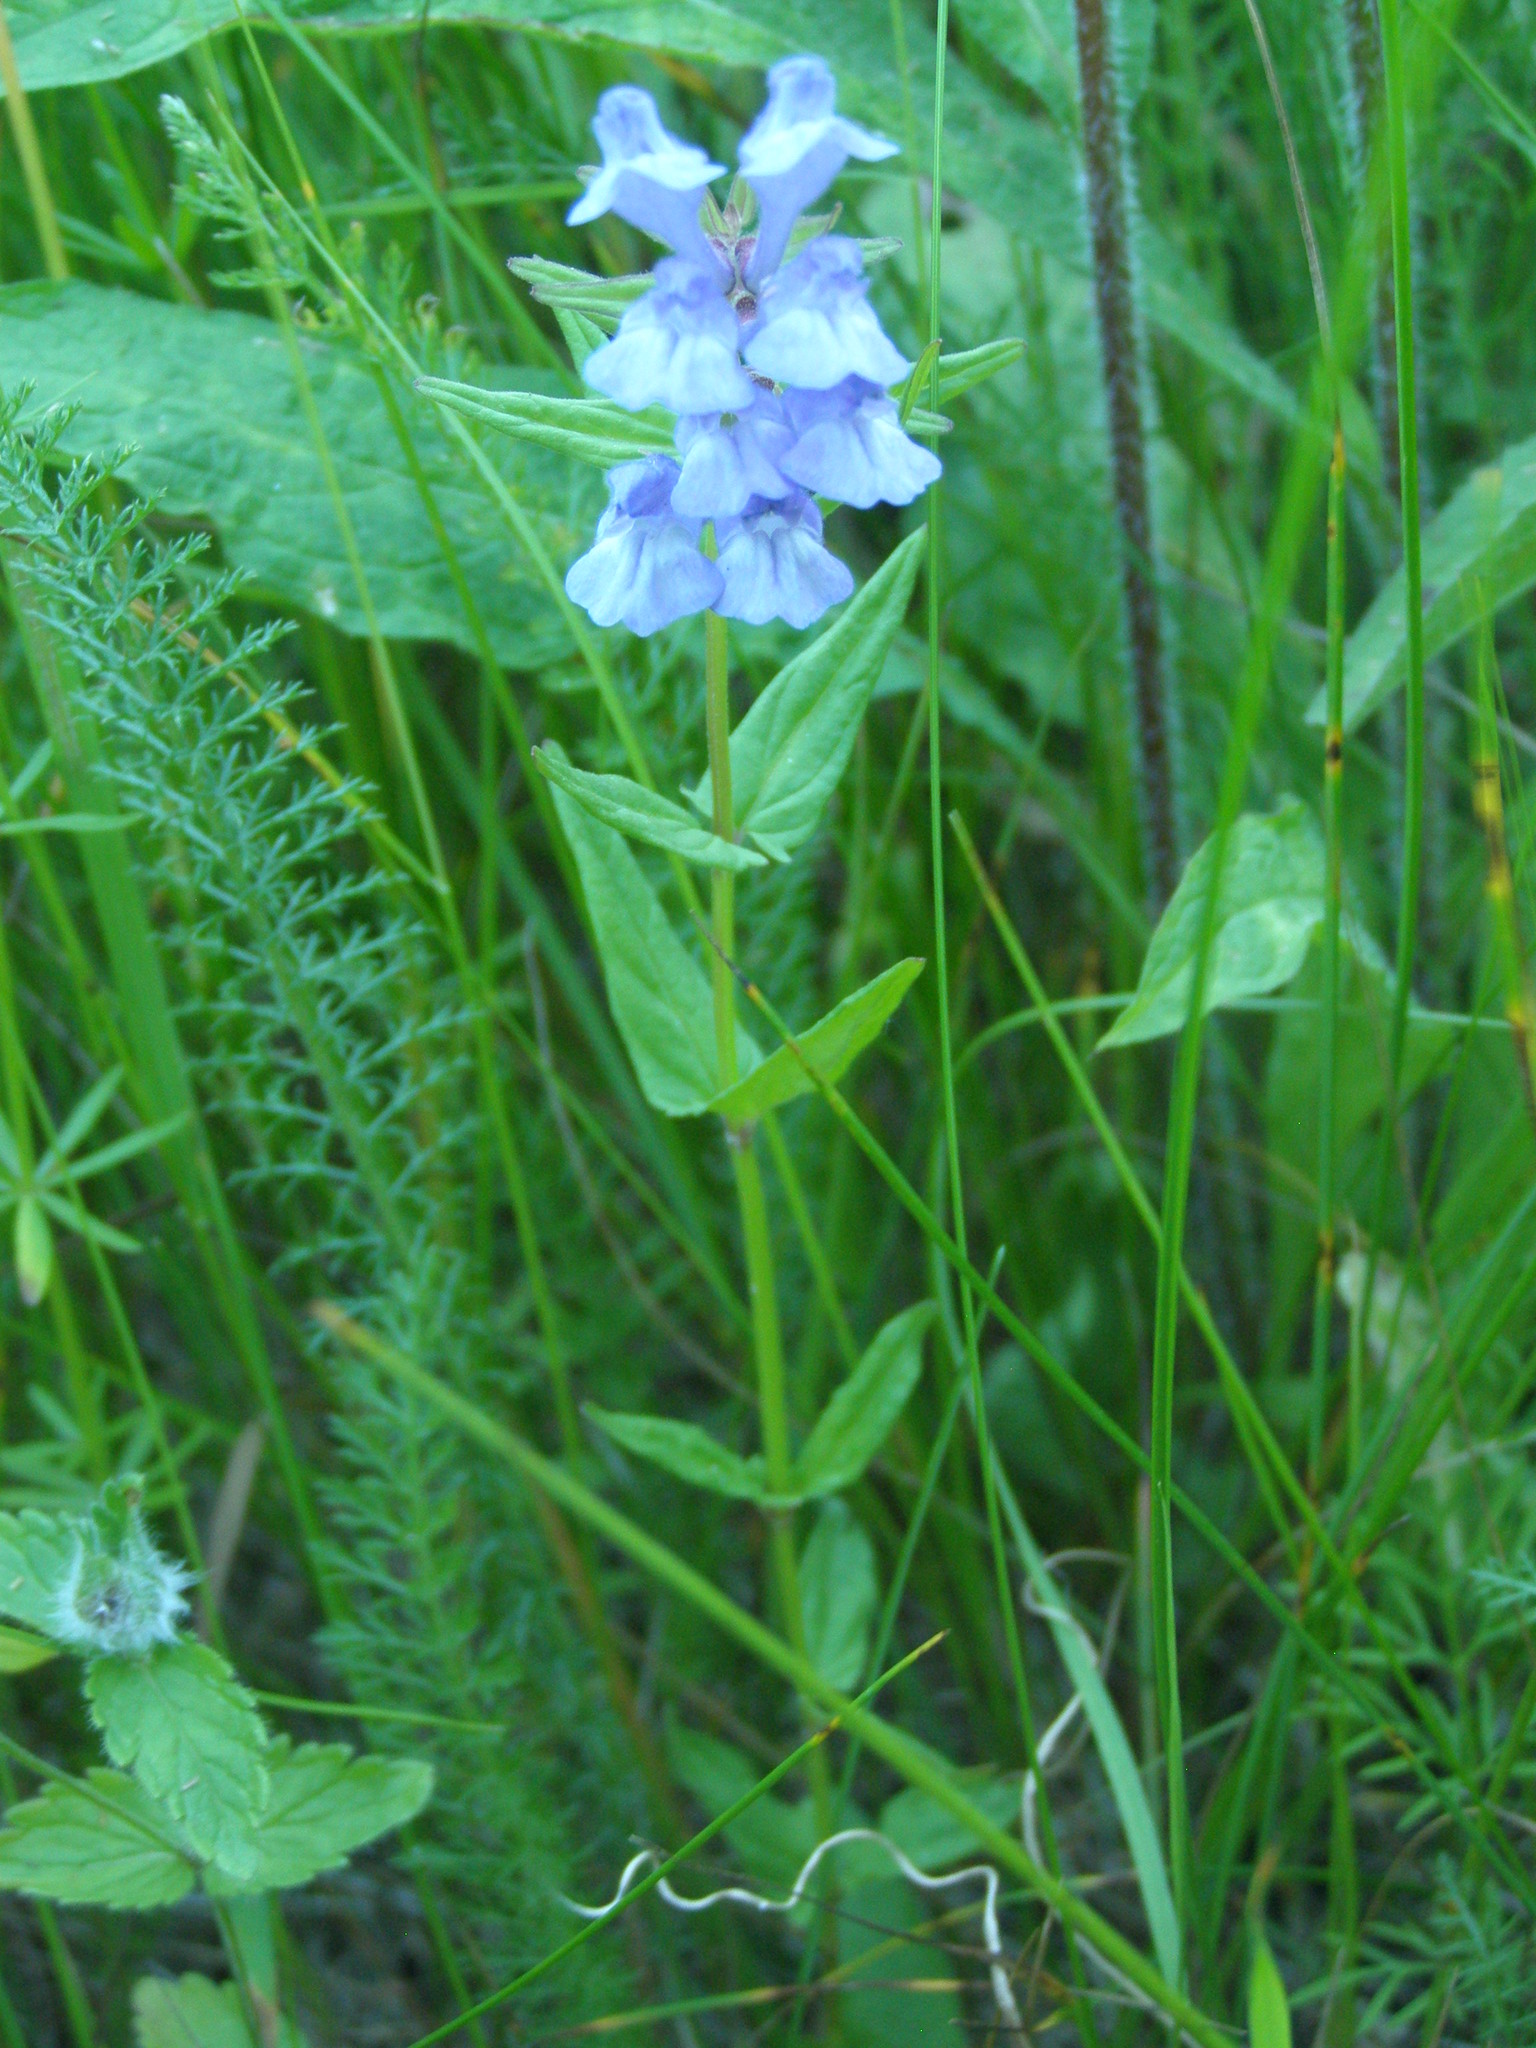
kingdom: Plantae
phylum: Tracheophyta
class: Magnoliopsida
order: Lamiales
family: Lamiaceae
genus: Scutellaria
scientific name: Scutellaria hastifolia
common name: Norfolk skullcap
